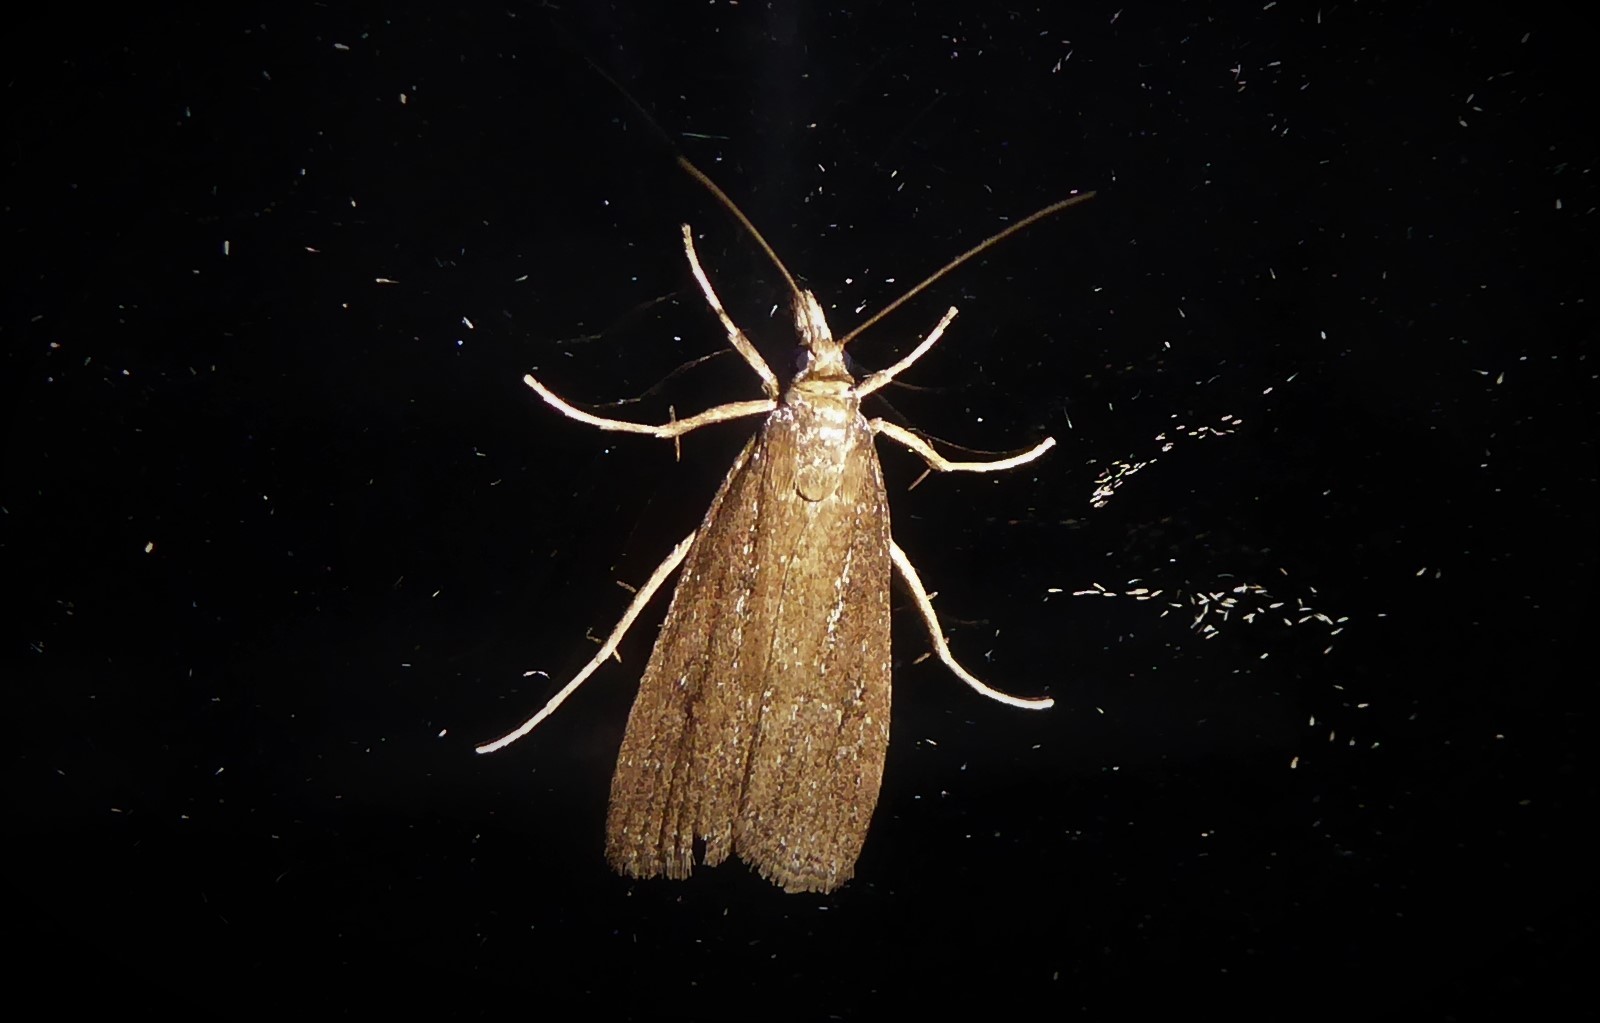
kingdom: Animalia
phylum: Arthropoda
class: Insecta
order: Lepidoptera
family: Crambidae
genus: Eudonia
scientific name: Eudonia octophora
